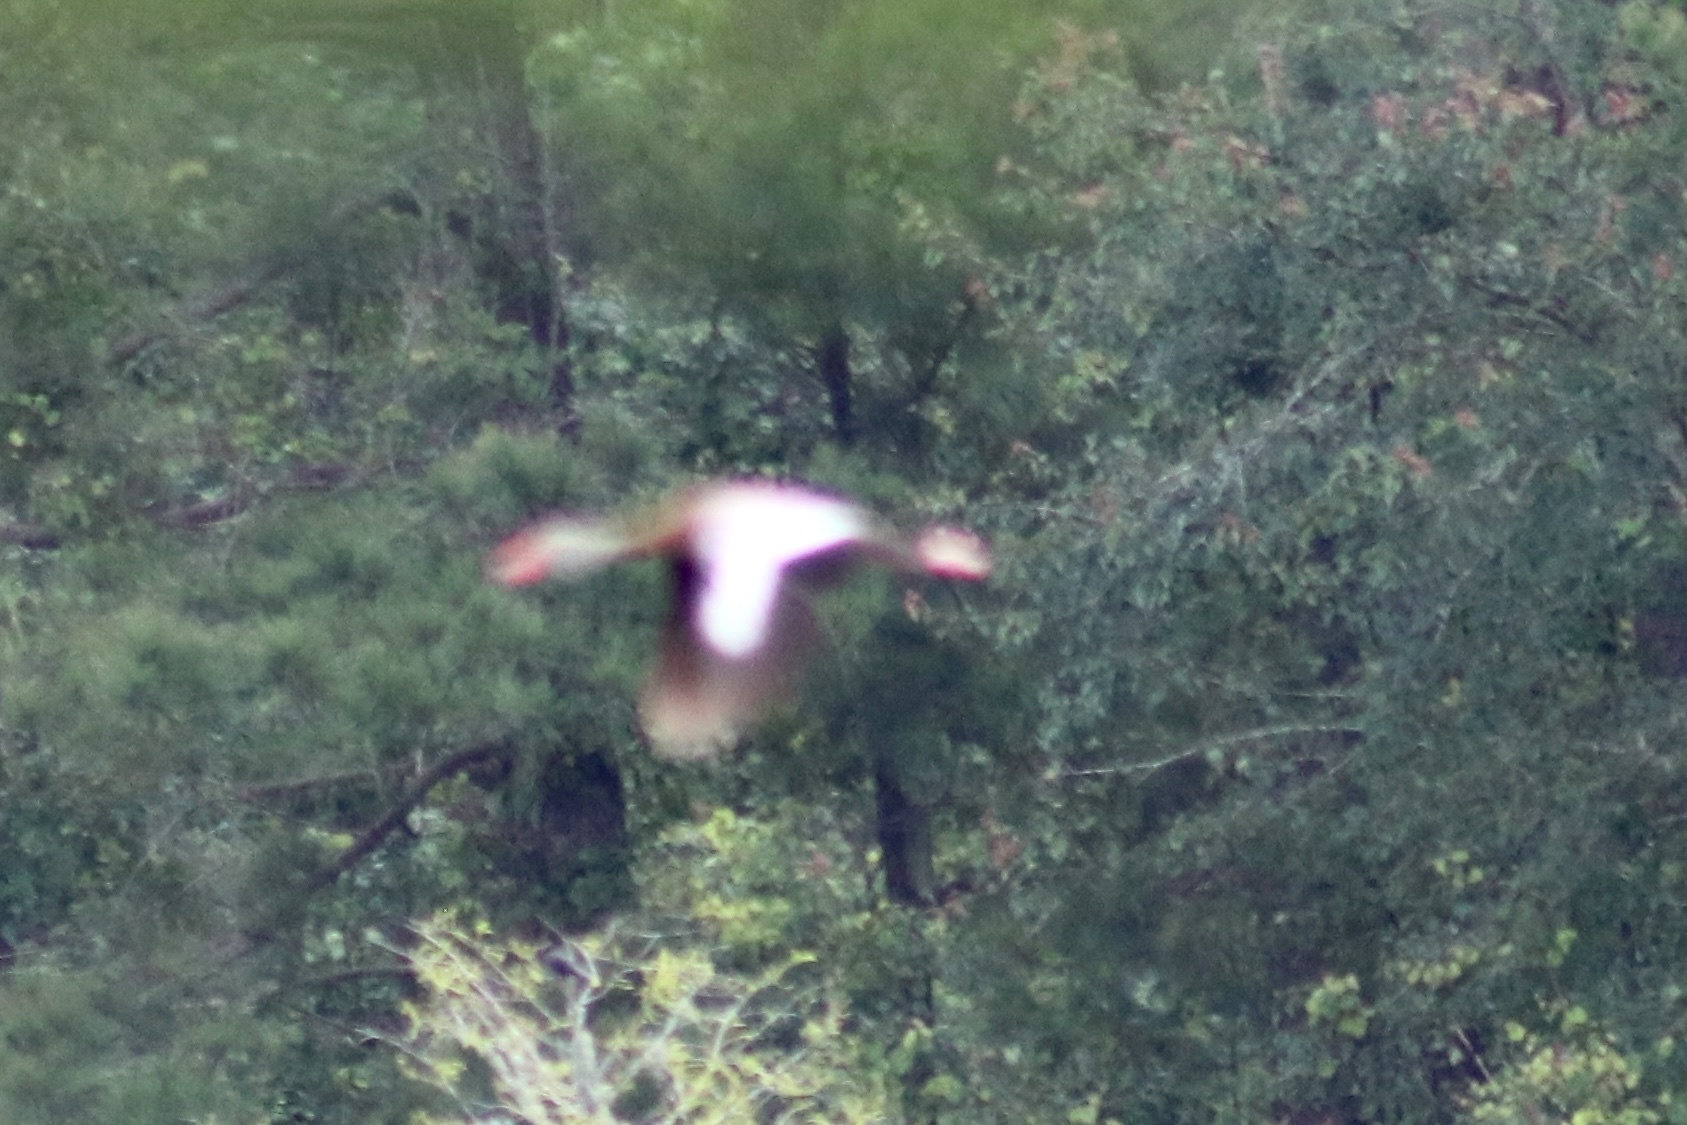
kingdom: Animalia
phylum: Chordata
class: Aves
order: Anseriformes
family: Anatidae
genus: Dendrocygna
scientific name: Dendrocygna autumnalis
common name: Black-bellied whistling duck
